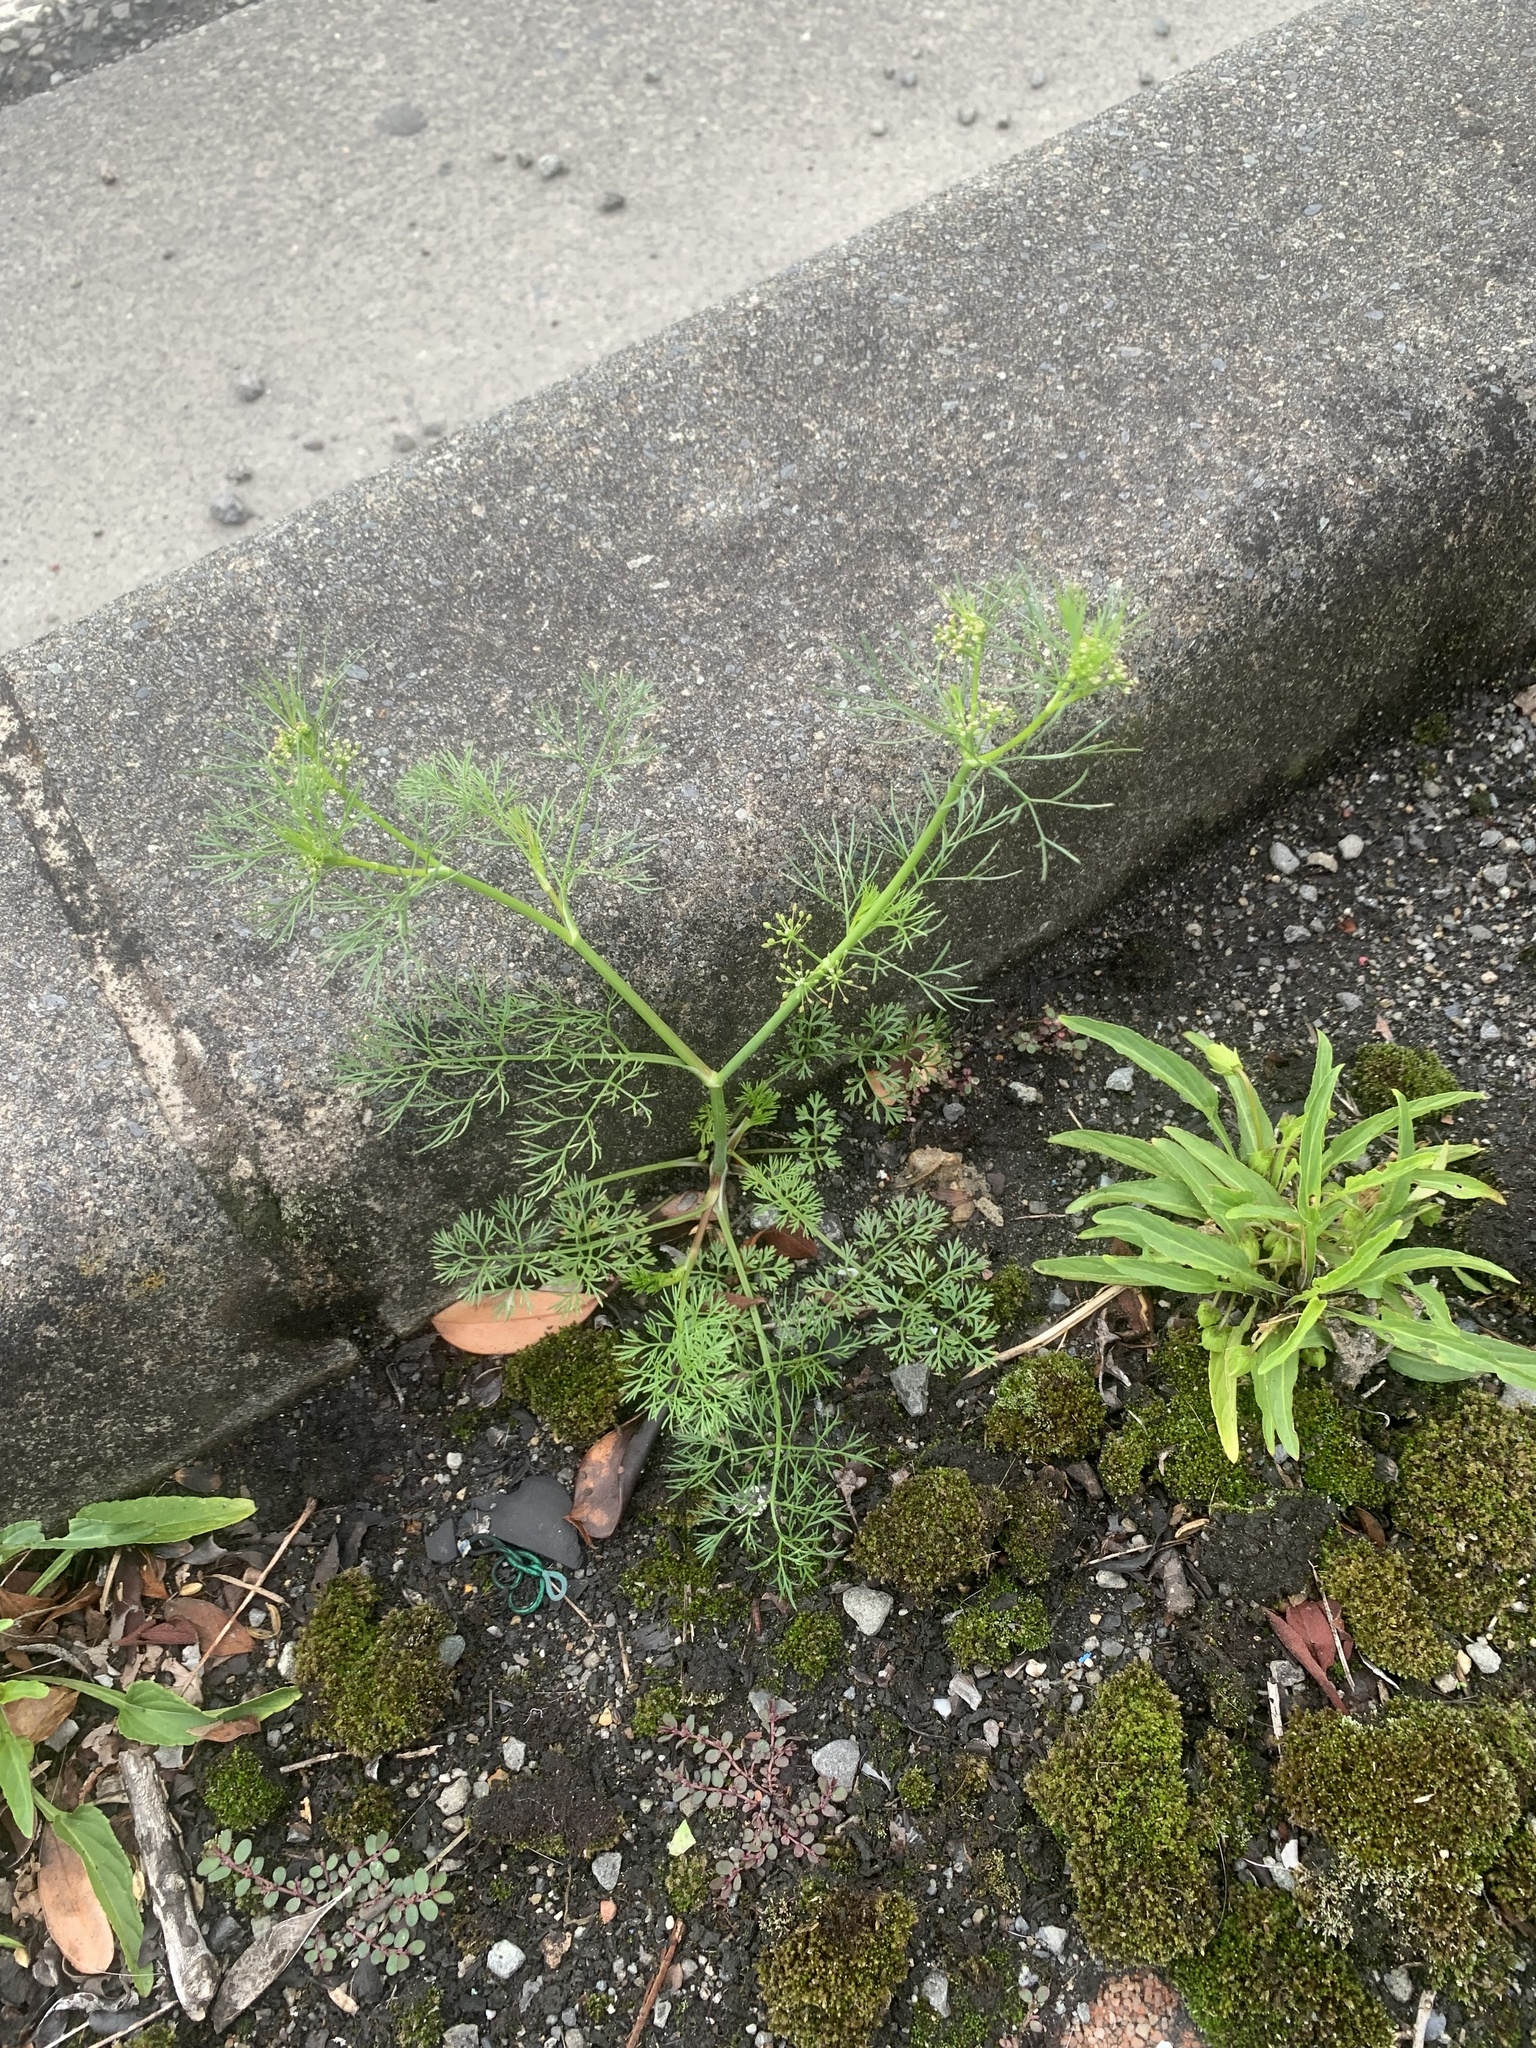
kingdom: Plantae
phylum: Tracheophyta
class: Magnoliopsida
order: Apiales
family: Apiaceae
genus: Cyclospermum
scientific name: Cyclospermum leptophyllum
